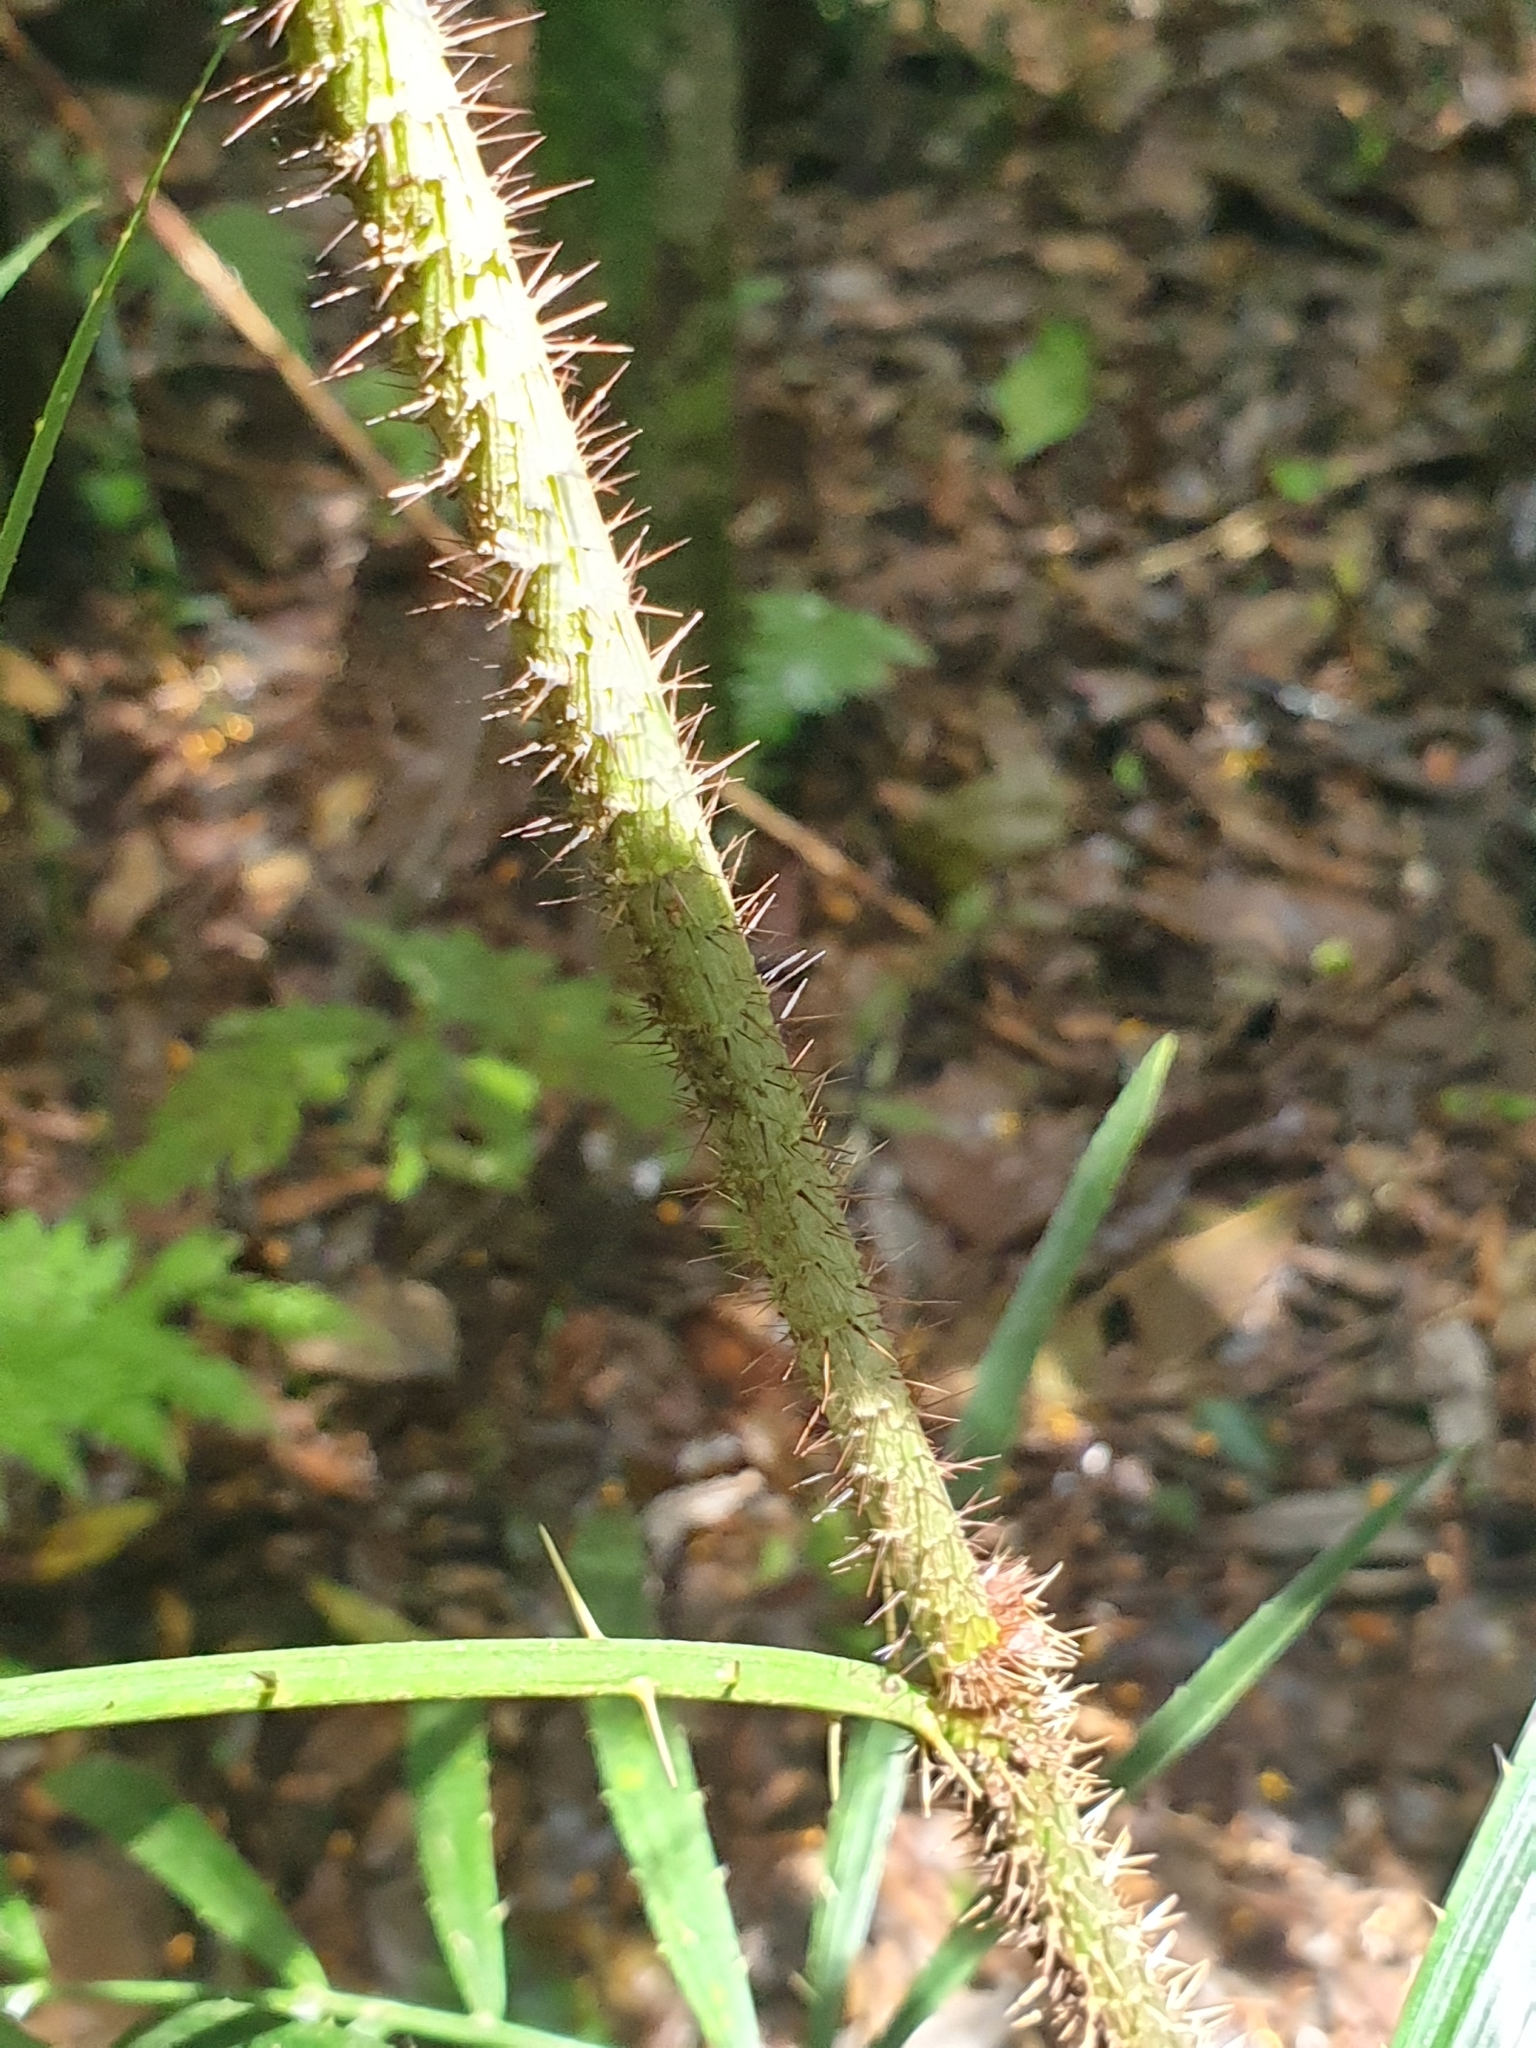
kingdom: Plantae
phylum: Tracheophyta
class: Liliopsida
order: Arecales
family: Arecaceae
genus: Calamus
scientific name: Calamus muelleri
